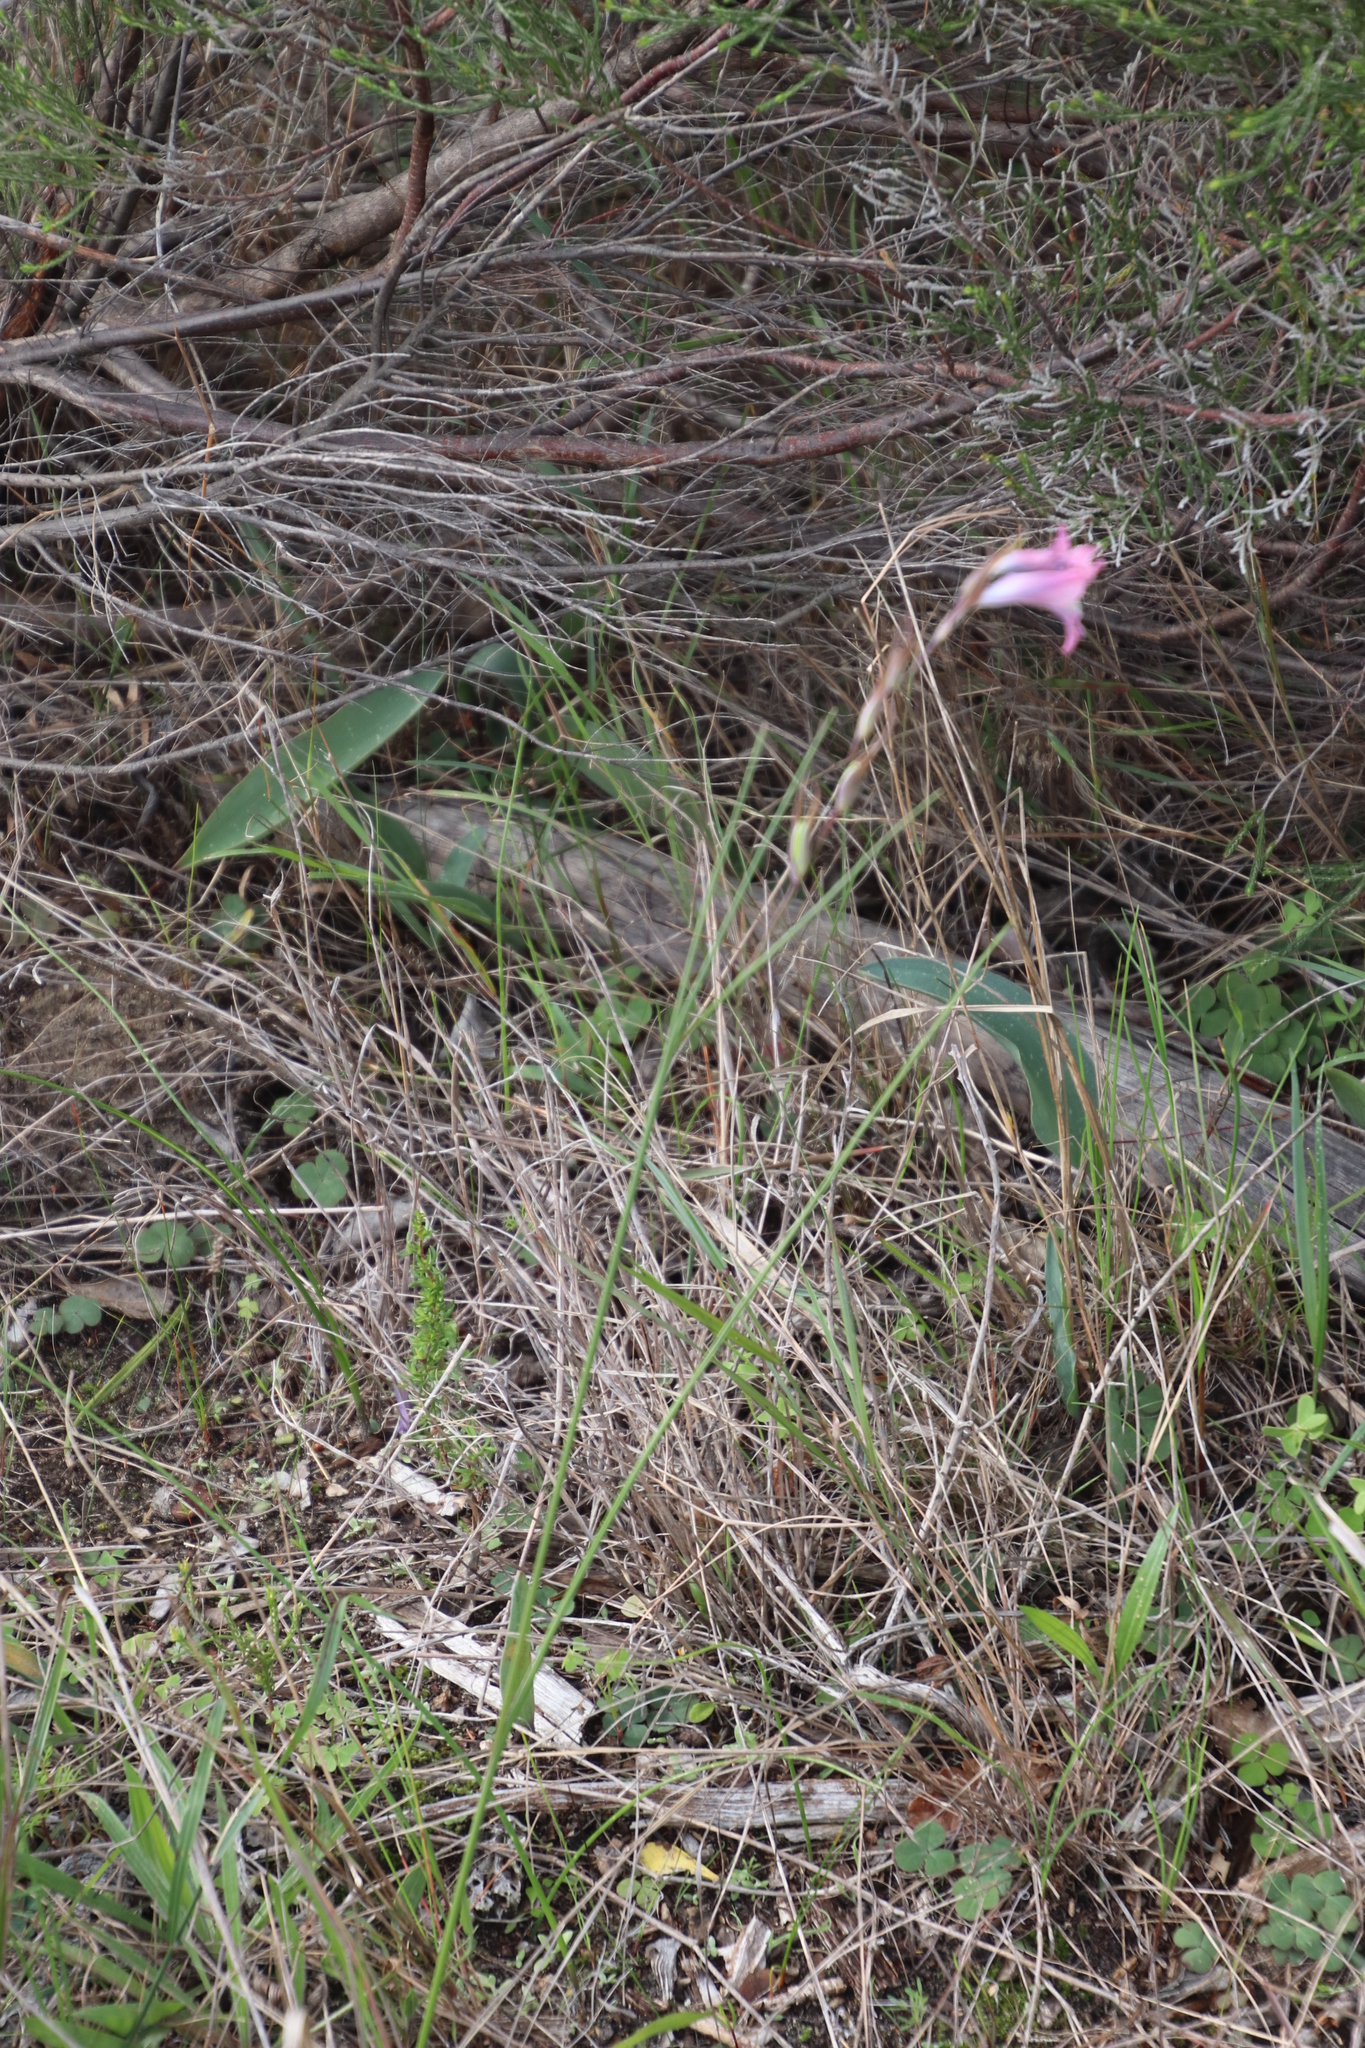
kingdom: Plantae
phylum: Tracheophyta
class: Liliopsida
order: Asparagales
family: Iridaceae
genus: Gladiolus
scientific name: Gladiolus gracilis
